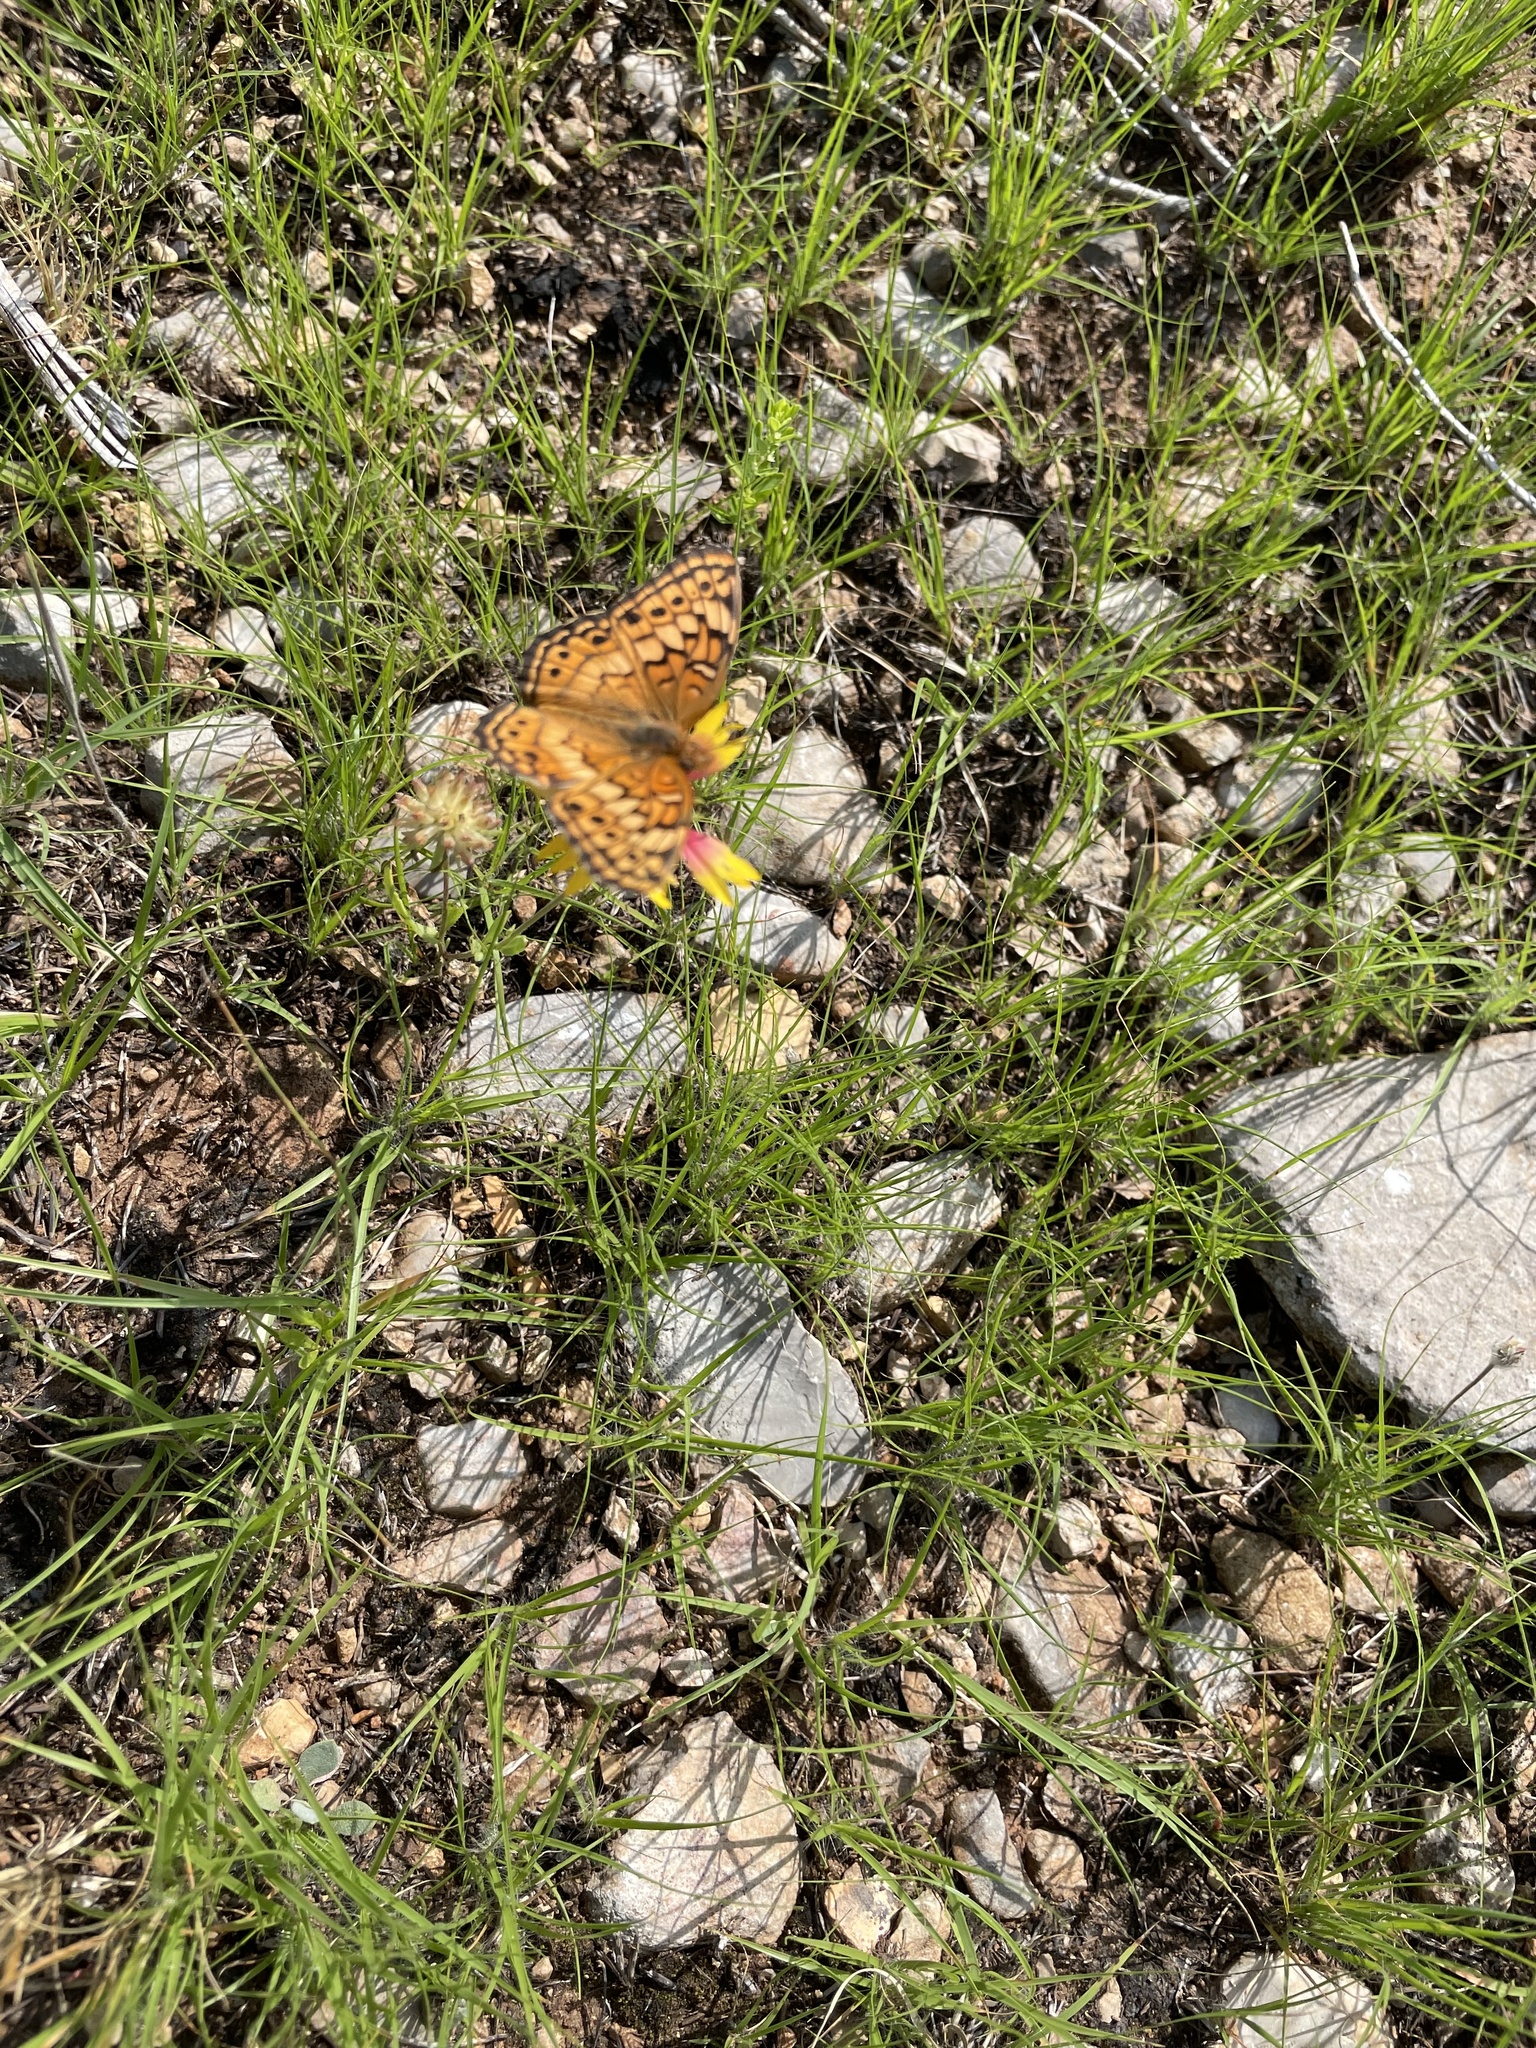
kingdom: Animalia
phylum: Arthropoda
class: Insecta
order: Lepidoptera
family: Nymphalidae
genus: Euptoieta
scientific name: Euptoieta claudia
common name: Variegated fritillary
